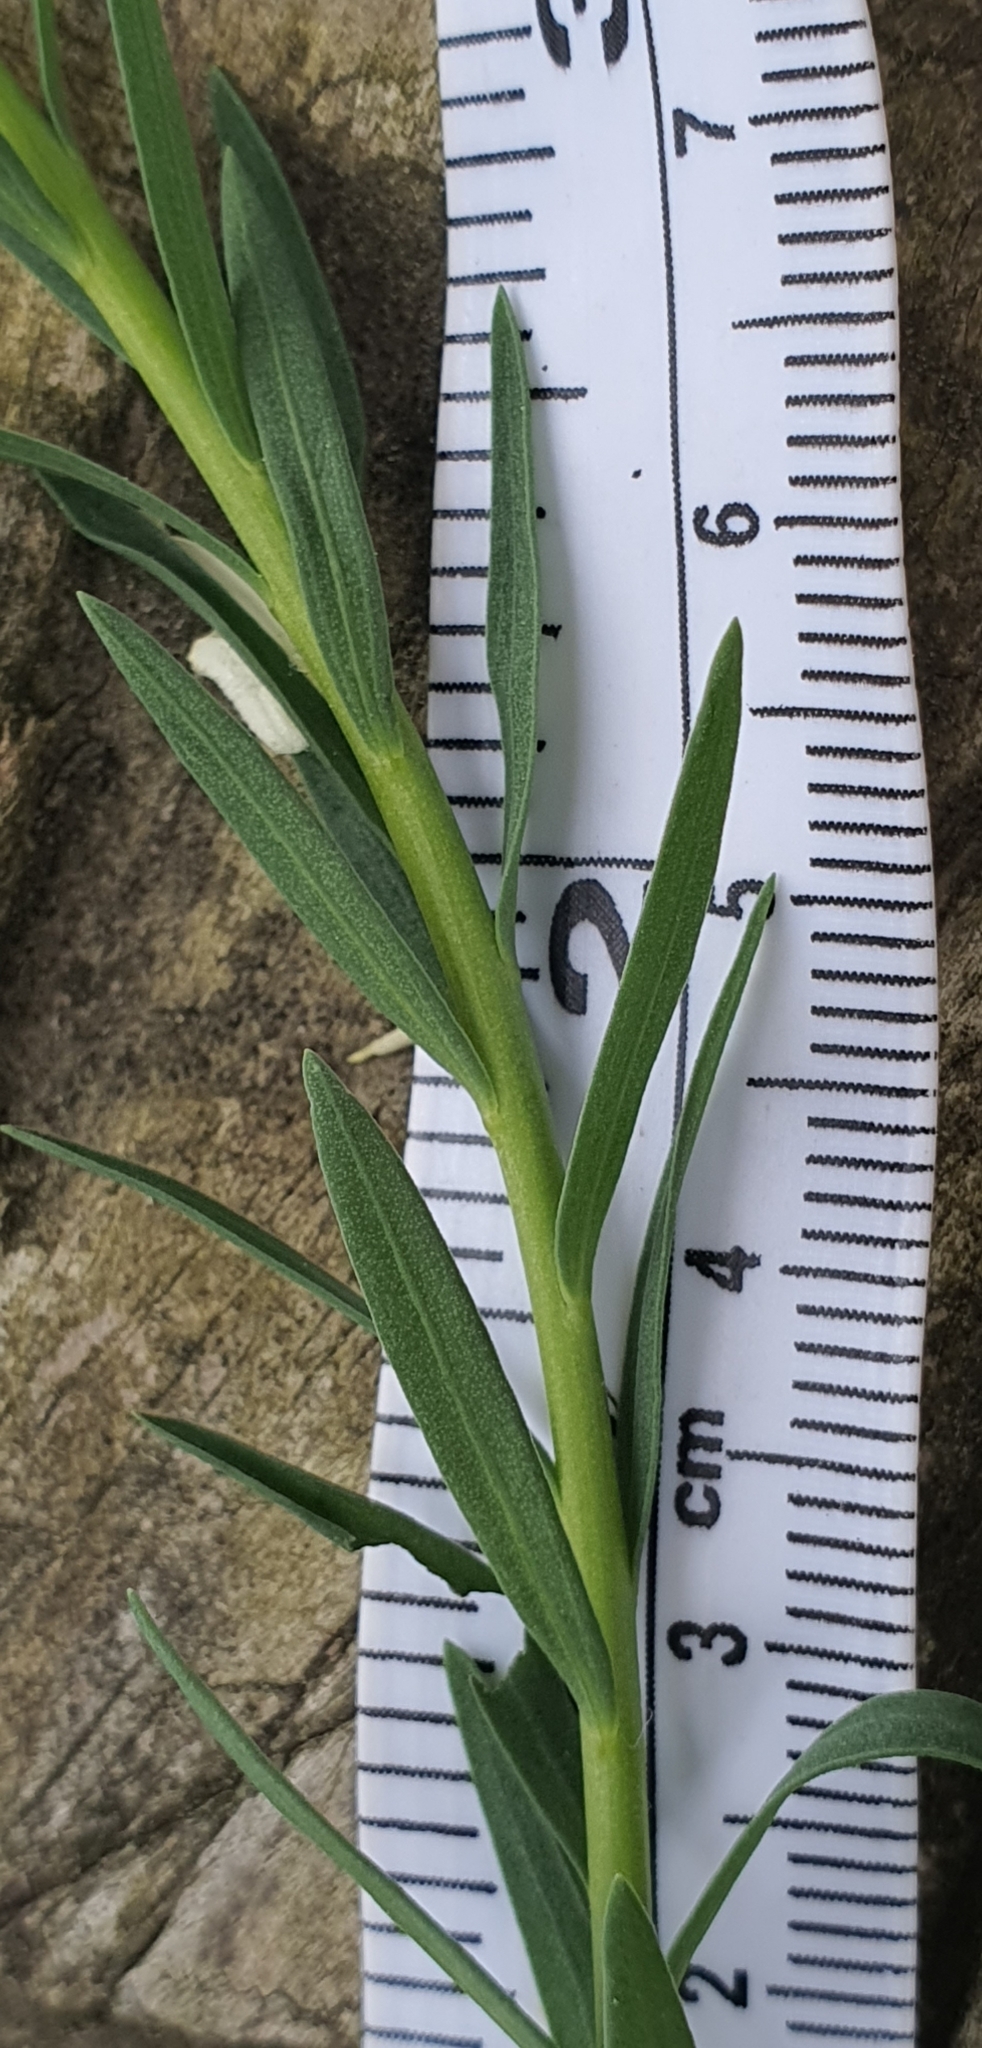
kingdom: Plantae
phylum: Tracheophyta
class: Magnoliopsida
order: Malpighiales
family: Linaceae
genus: Linum
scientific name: Linum monogynum
